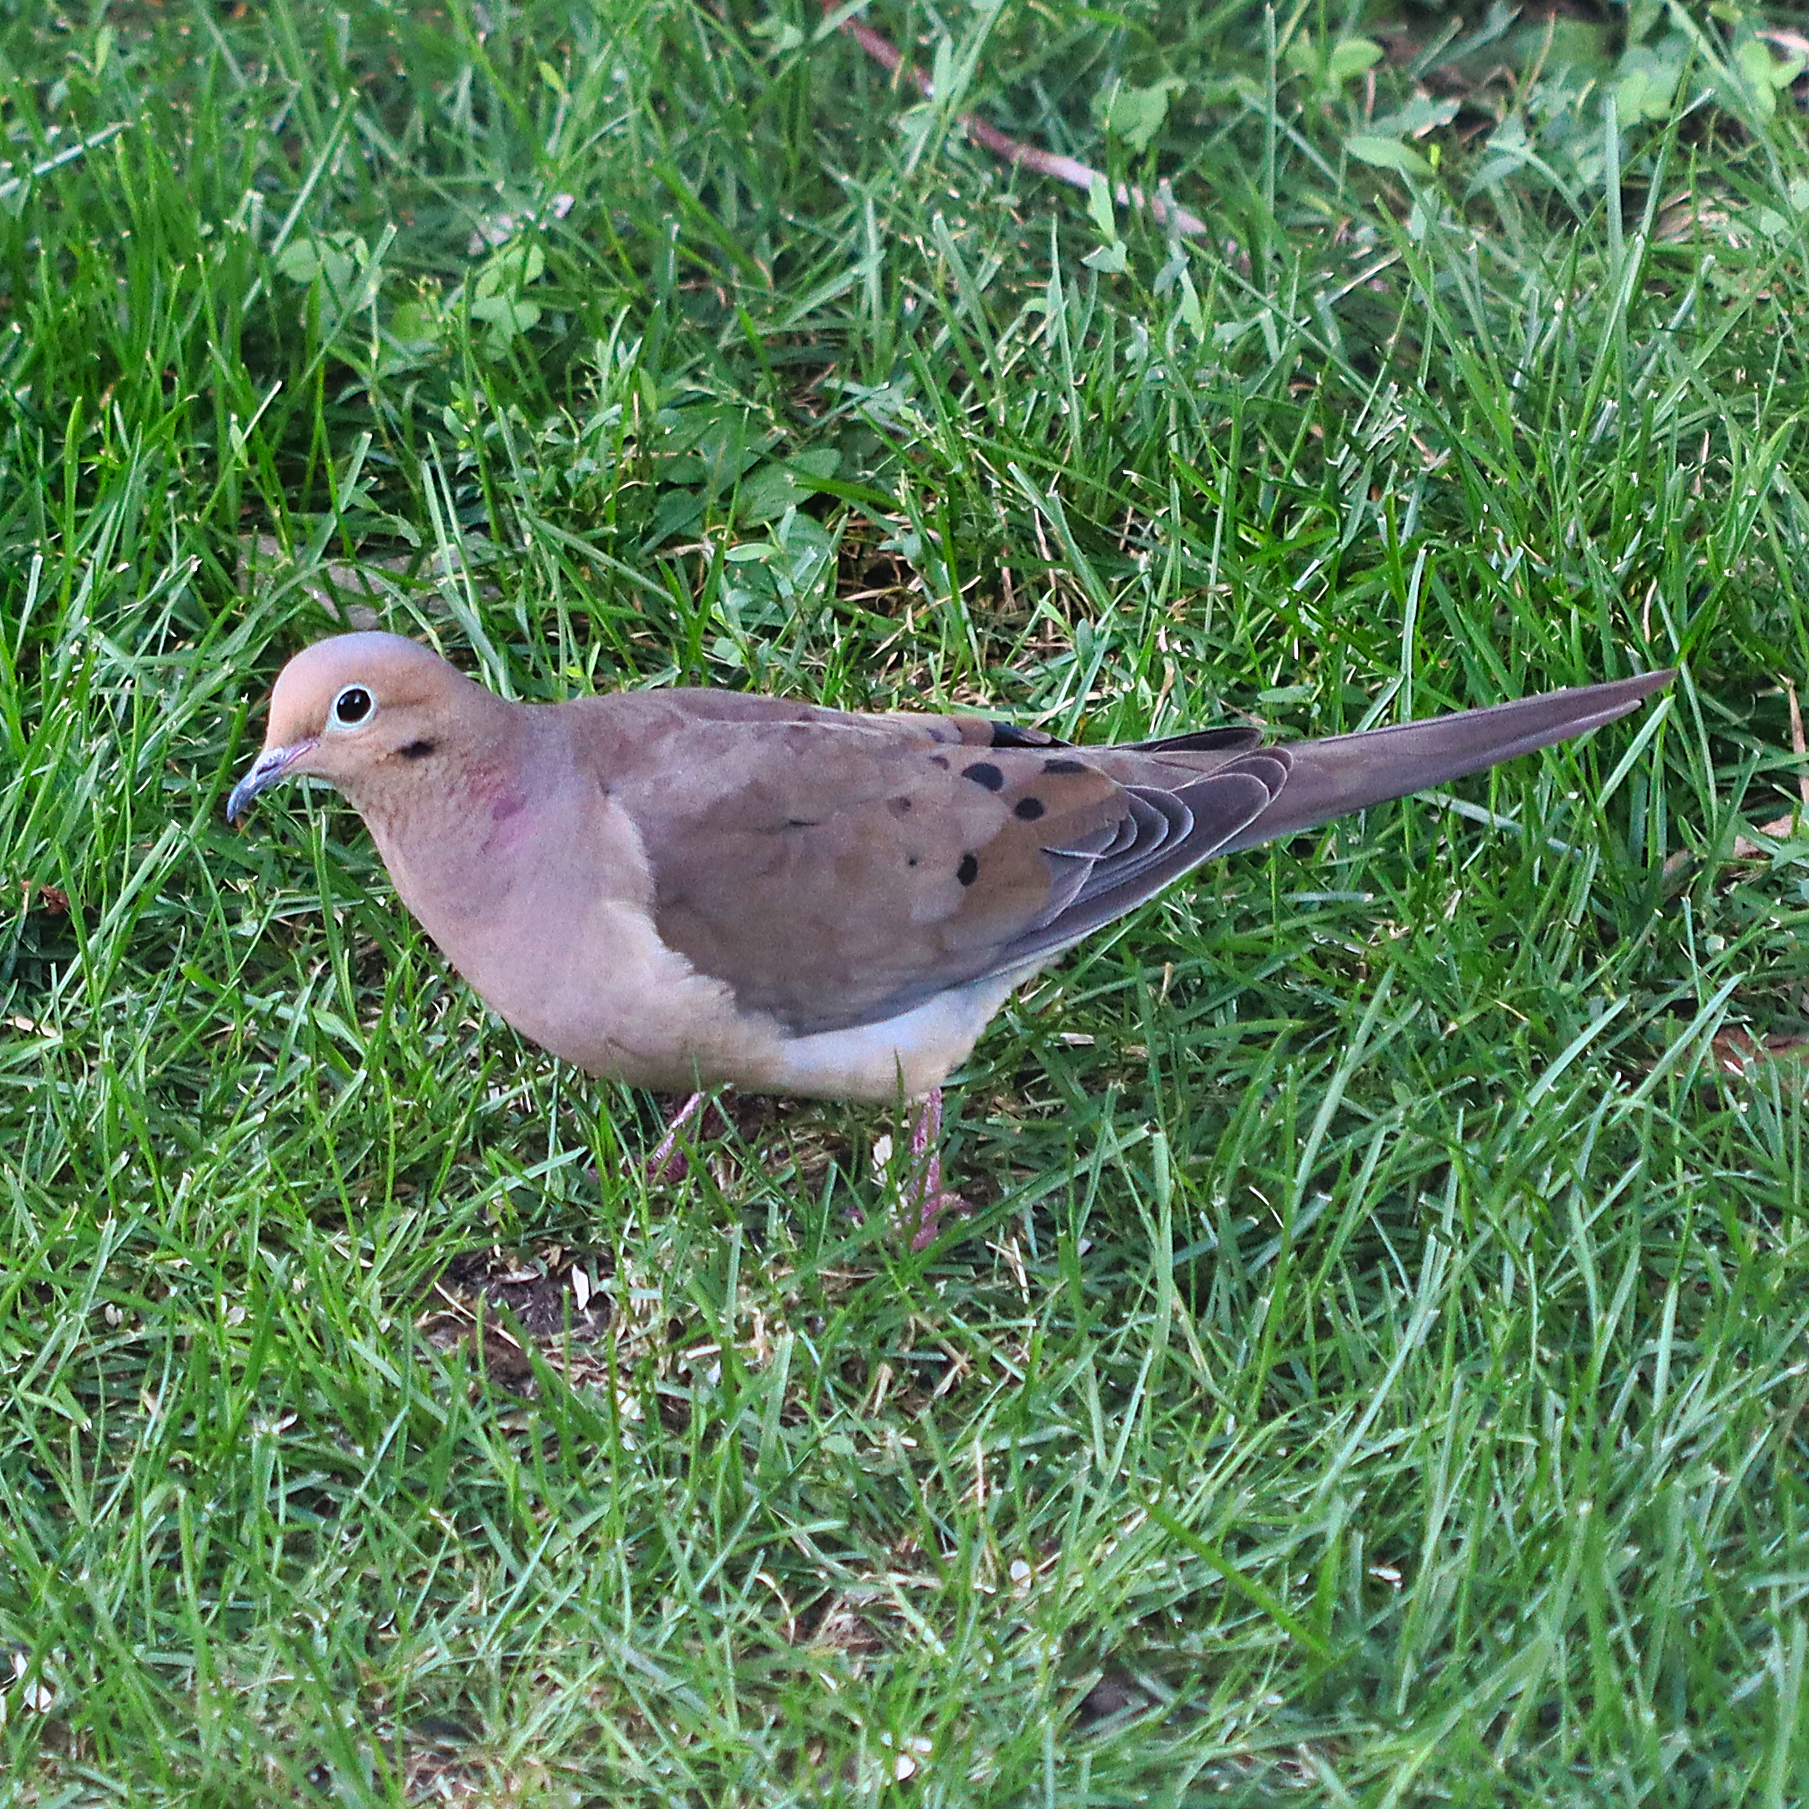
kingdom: Animalia
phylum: Chordata
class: Aves
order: Columbiformes
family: Columbidae
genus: Zenaida
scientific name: Zenaida macroura
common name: Mourning dove
